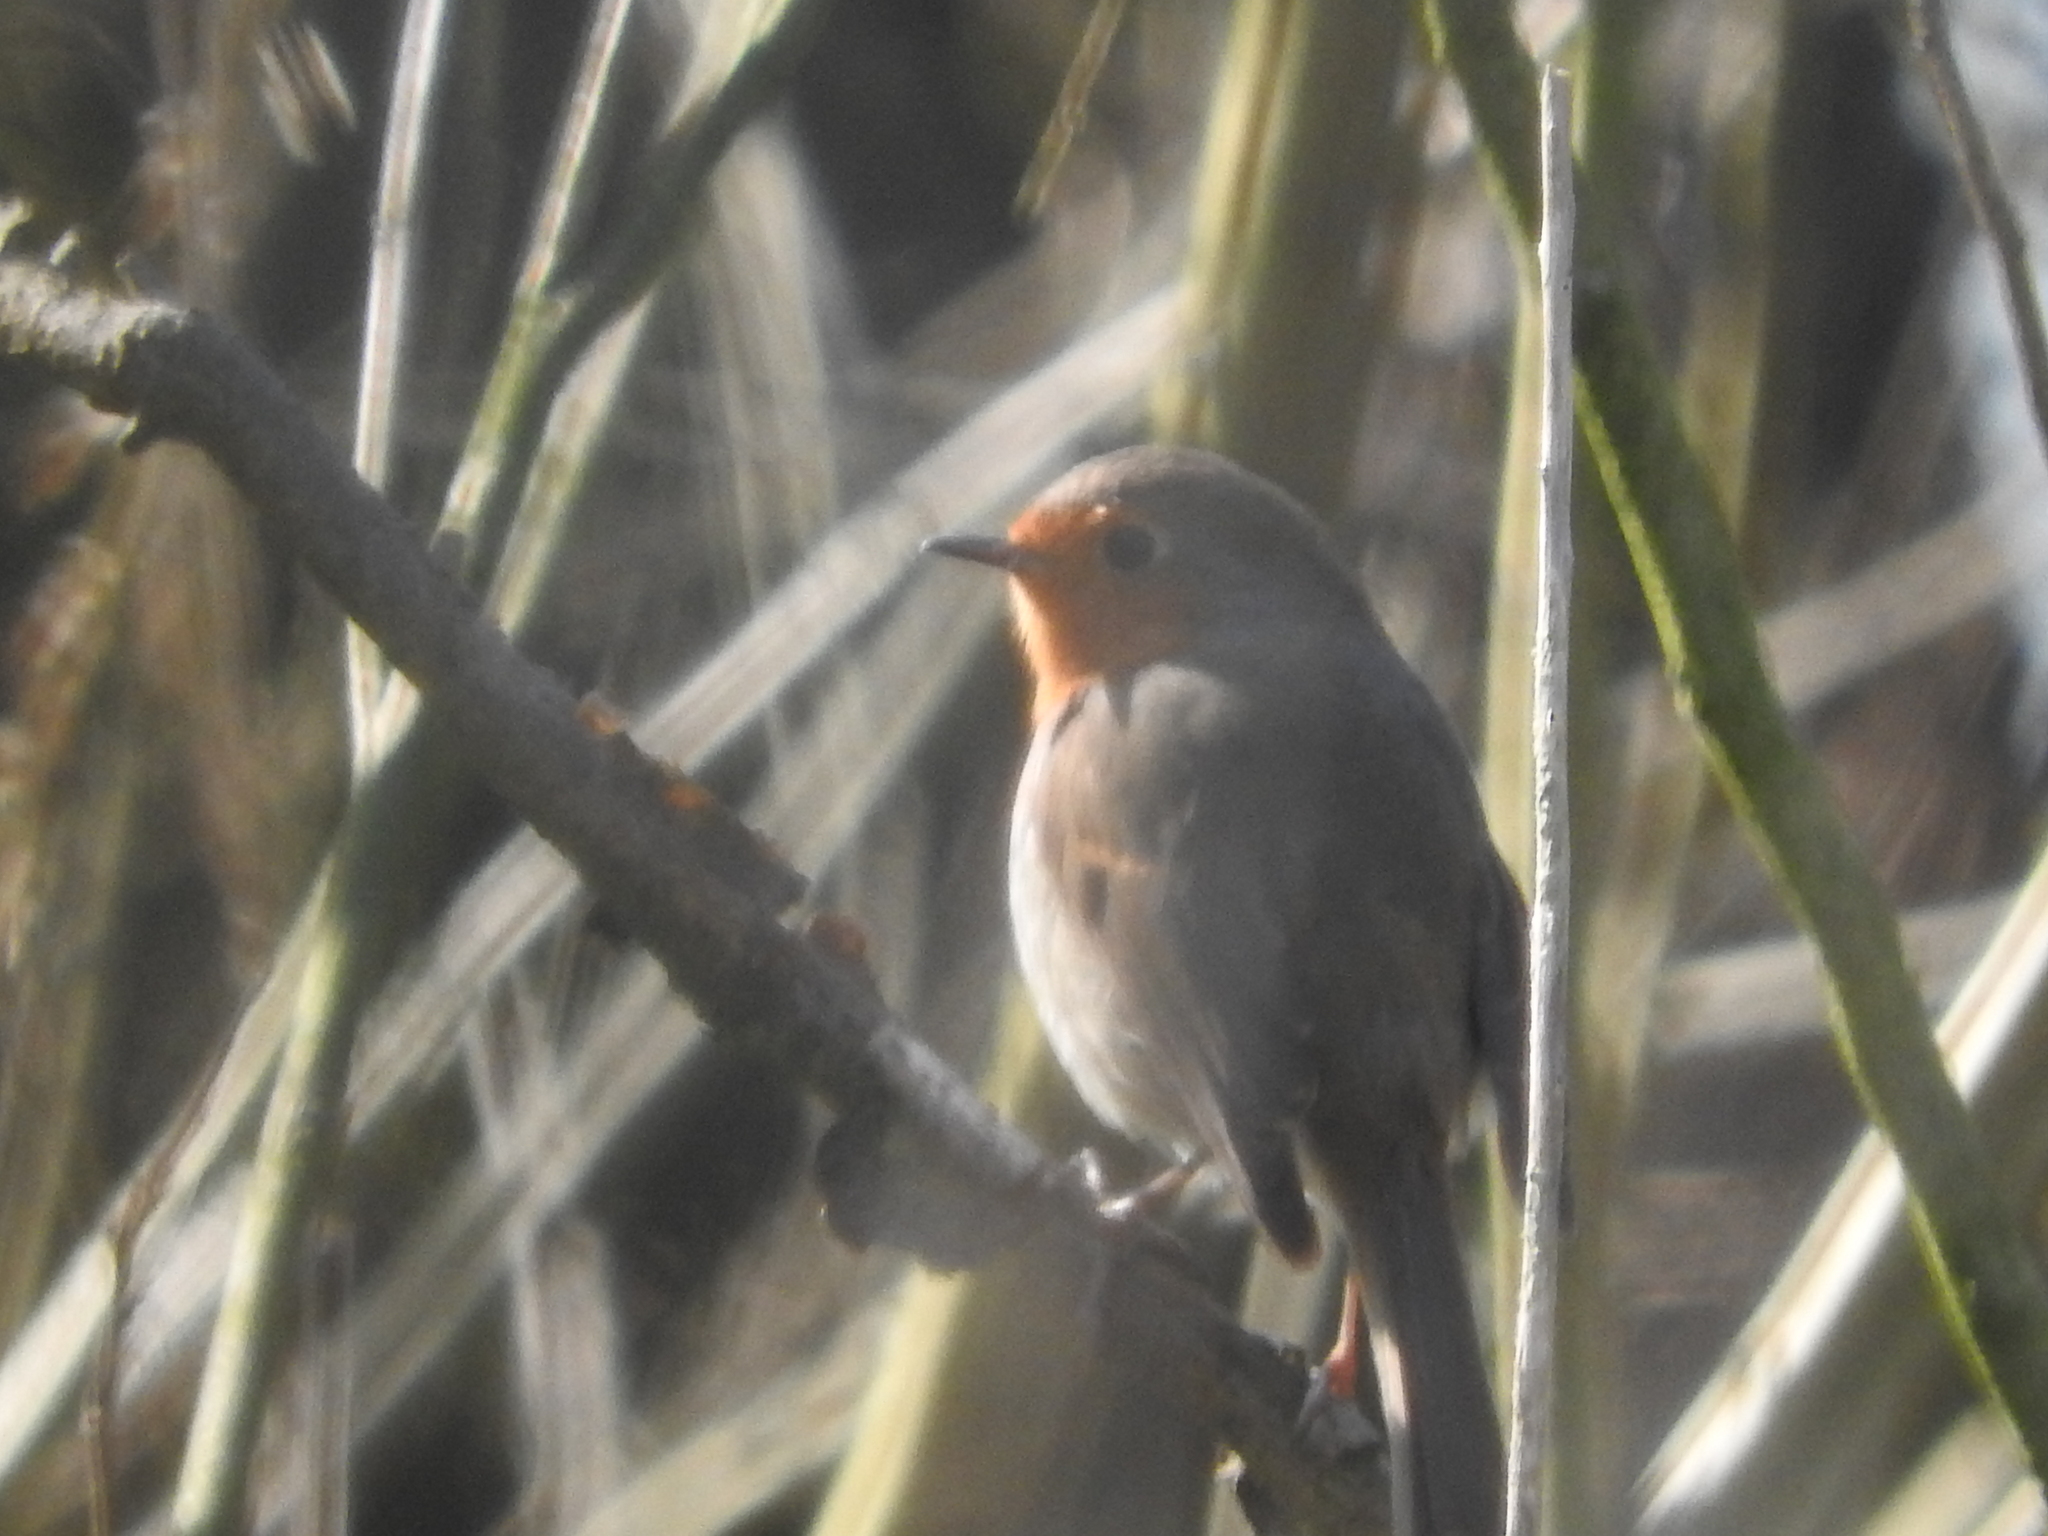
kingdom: Animalia
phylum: Chordata
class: Aves
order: Passeriformes
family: Muscicapidae
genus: Erithacus
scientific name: Erithacus rubecula
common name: European robin
